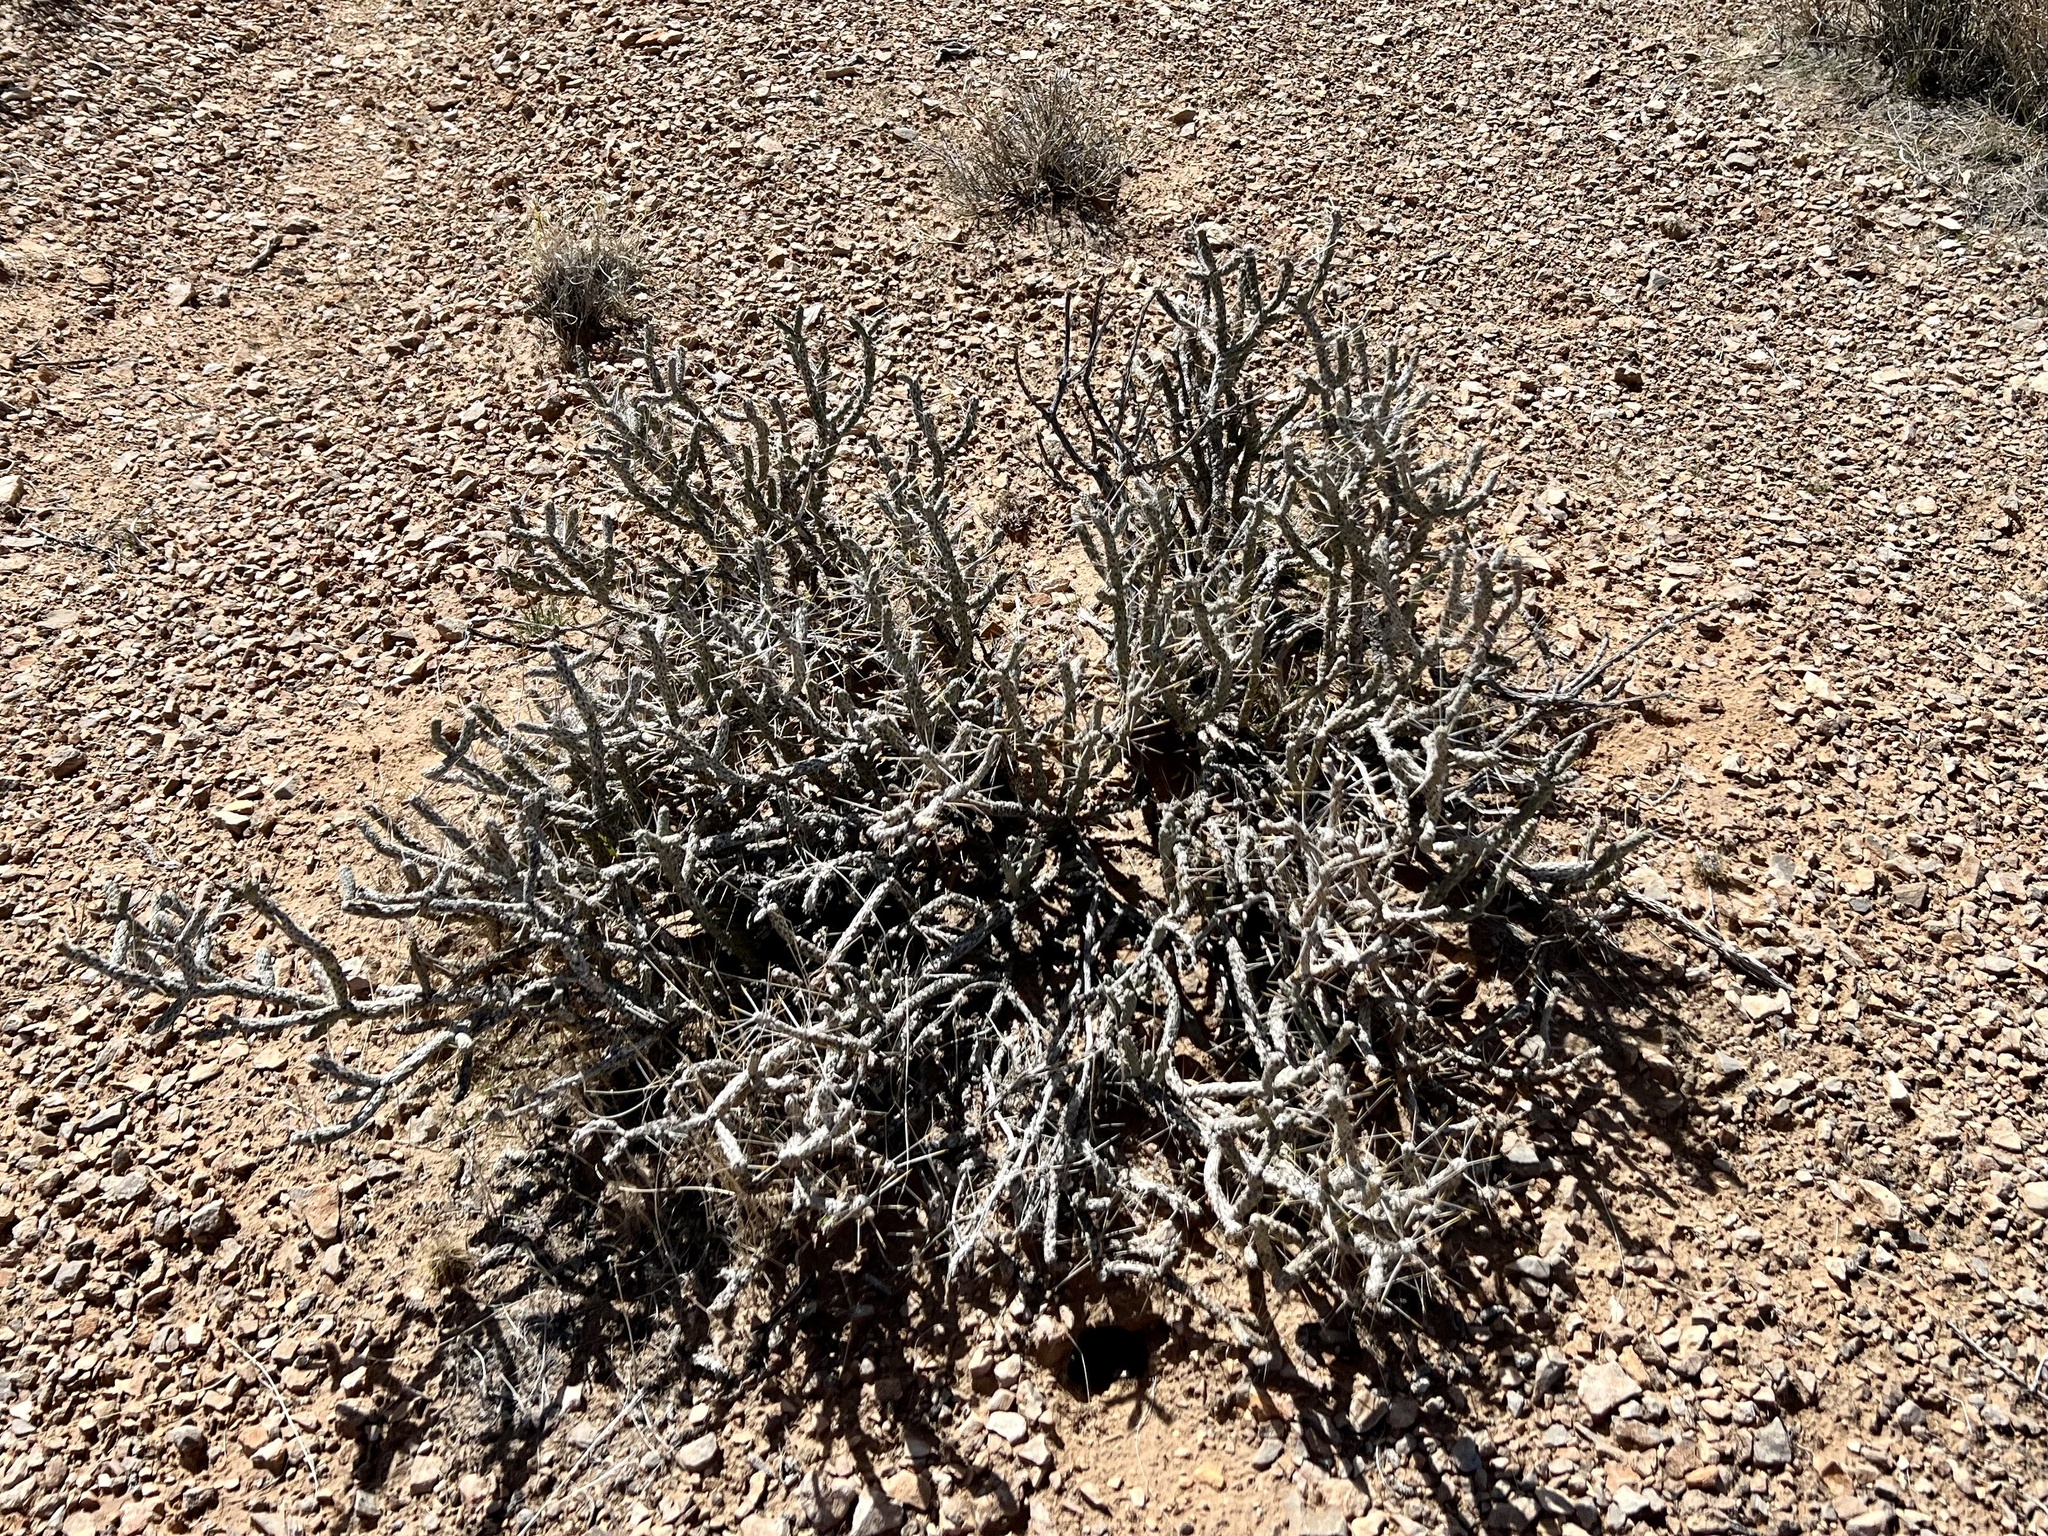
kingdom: Plantae
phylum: Tracheophyta
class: Magnoliopsida
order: Caryophyllales
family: Cactaceae
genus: Cylindropuntia
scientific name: Cylindropuntia ramosissima
